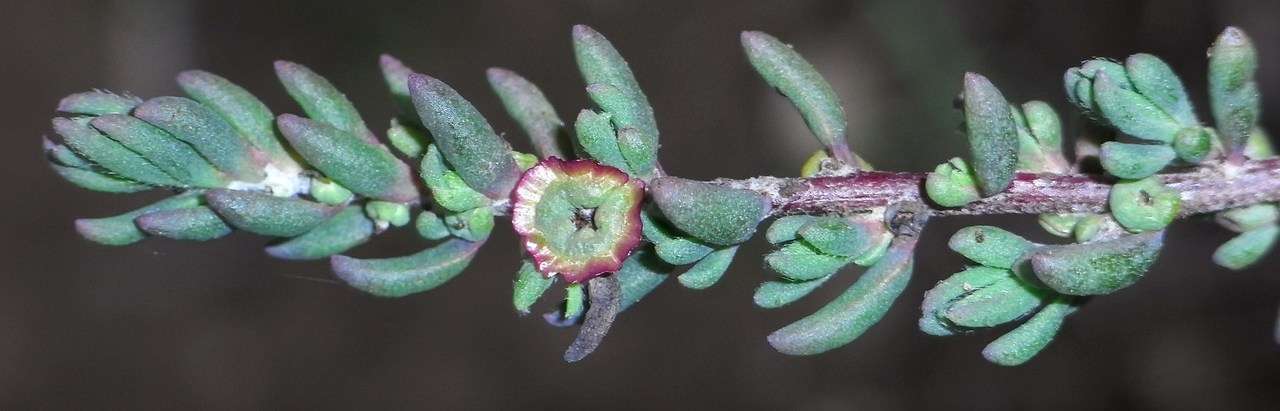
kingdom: Plantae
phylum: Tracheophyta
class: Magnoliopsida
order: Caryophyllales
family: Amaranthaceae
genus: Maireana
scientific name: Maireana decalvans
